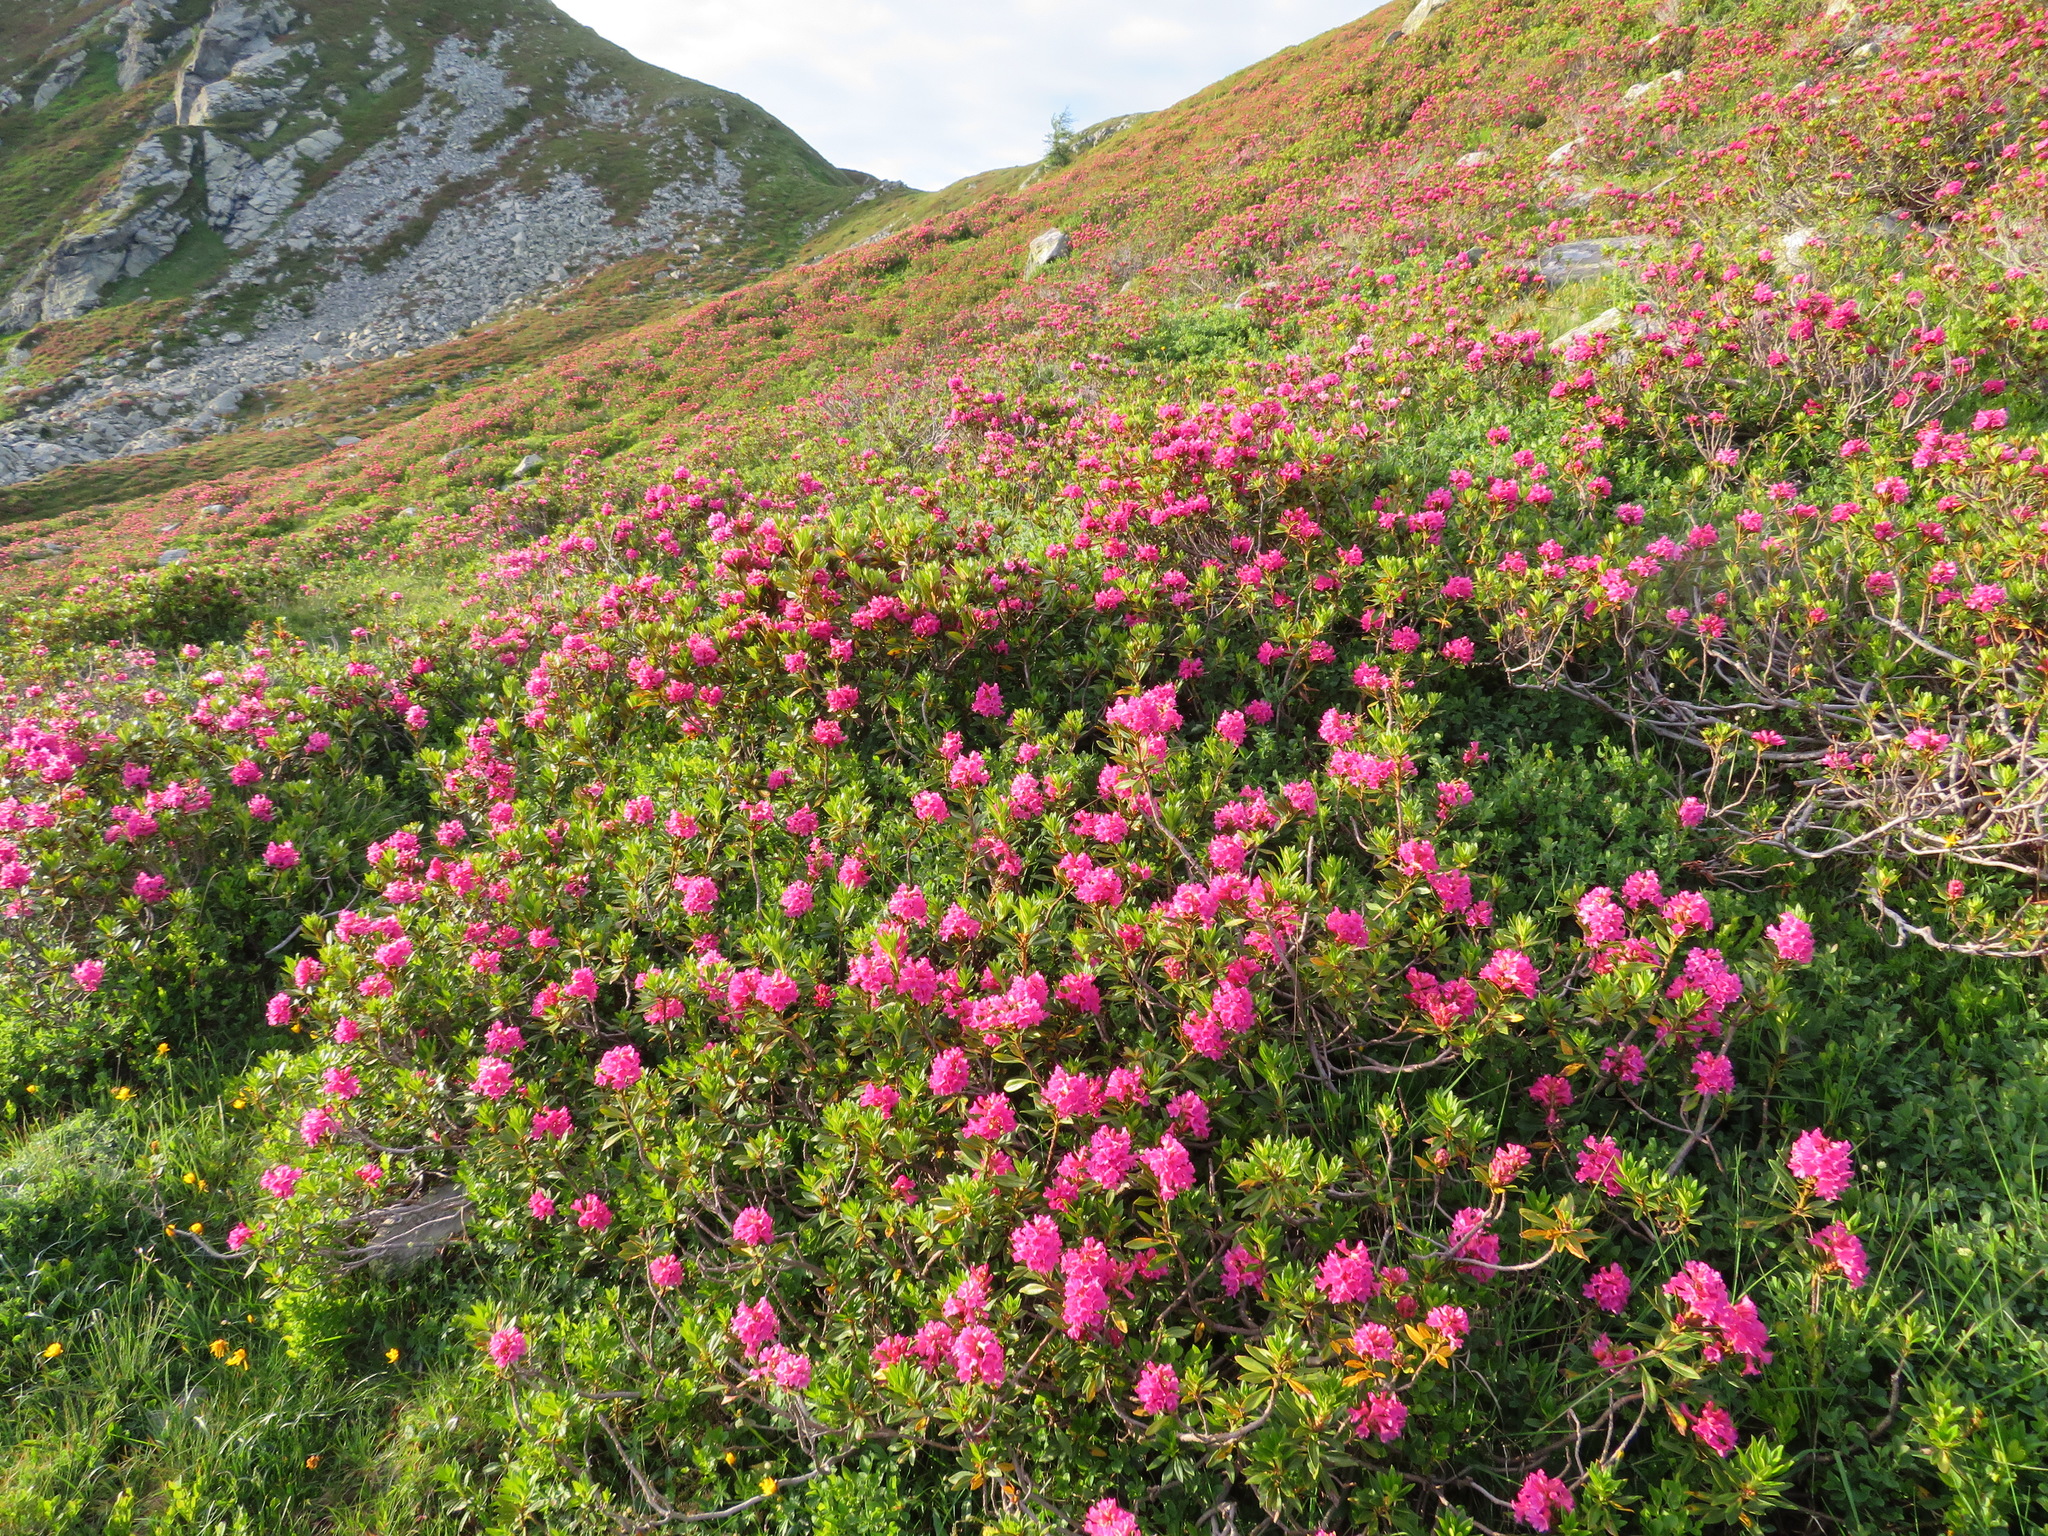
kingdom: Plantae
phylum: Tracheophyta
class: Magnoliopsida
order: Ericales
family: Ericaceae
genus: Rhododendron
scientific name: Rhododendron ferrugineum
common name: Alpenrose
